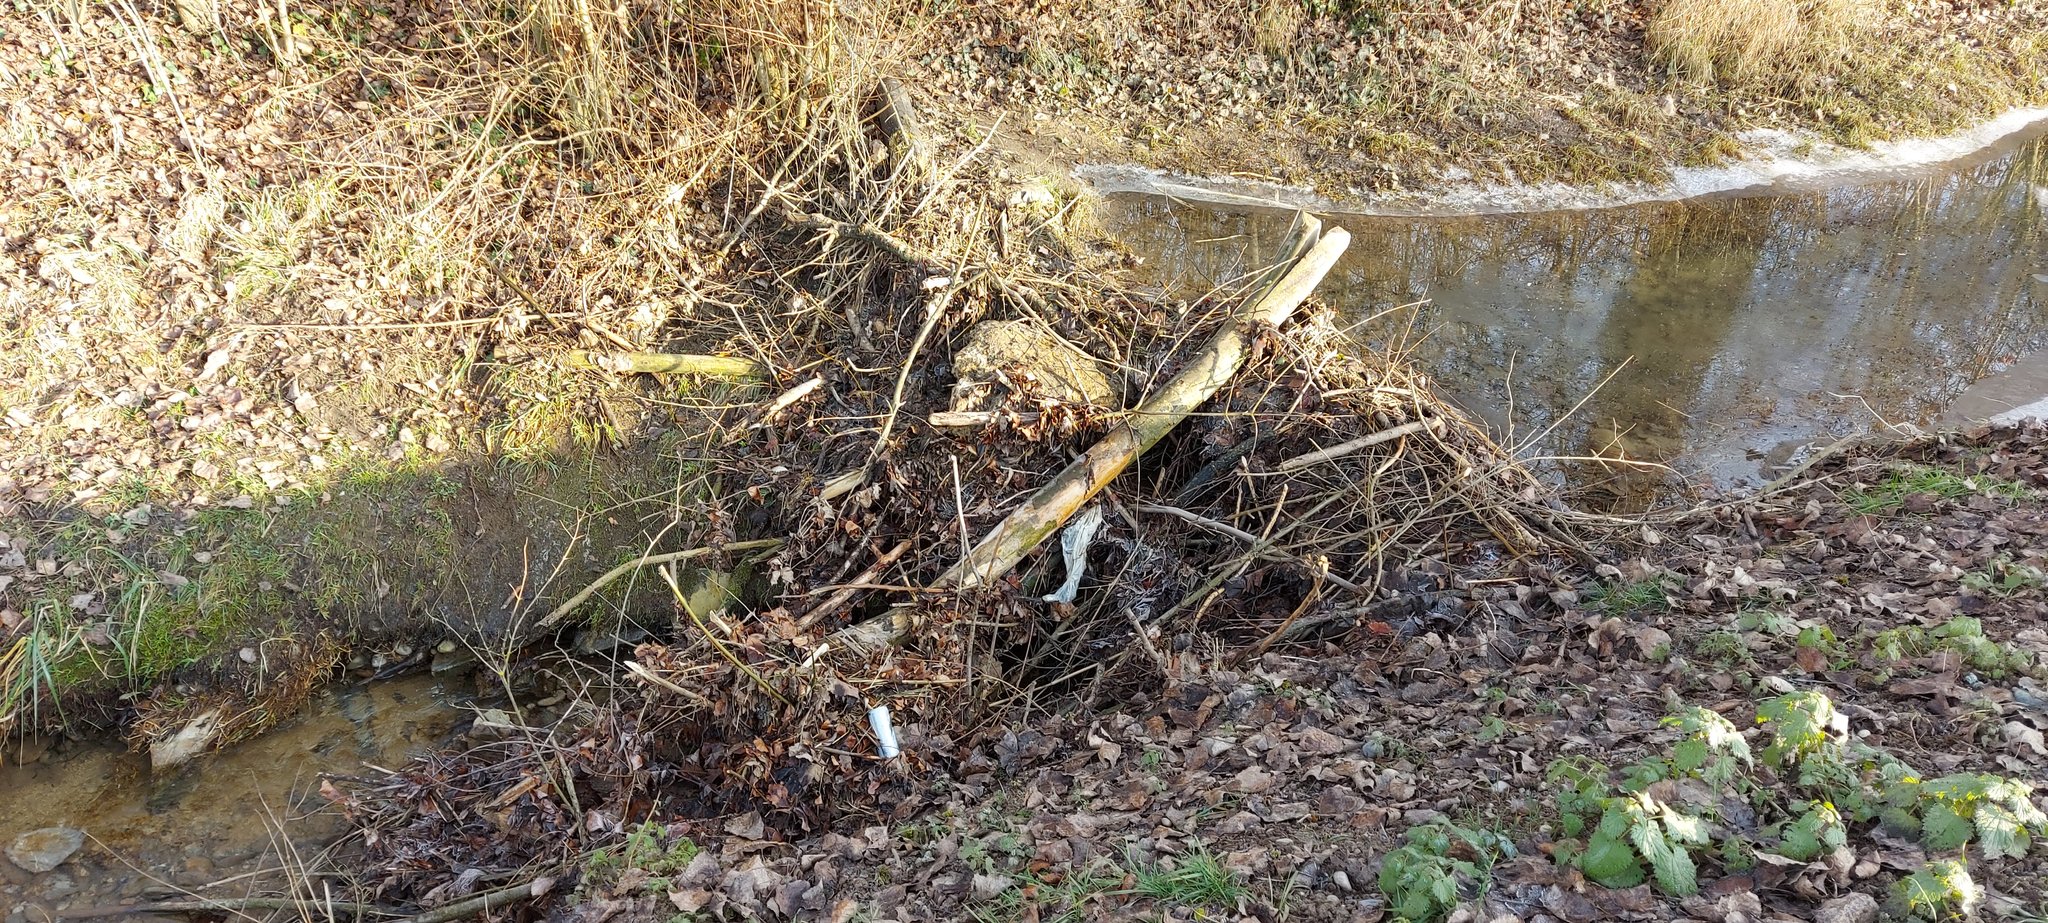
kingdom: Animalia
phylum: Chordata
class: Mammalia
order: Rodentia
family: Castoridae
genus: Castor
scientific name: Castor fiber
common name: Eurasian beaver
